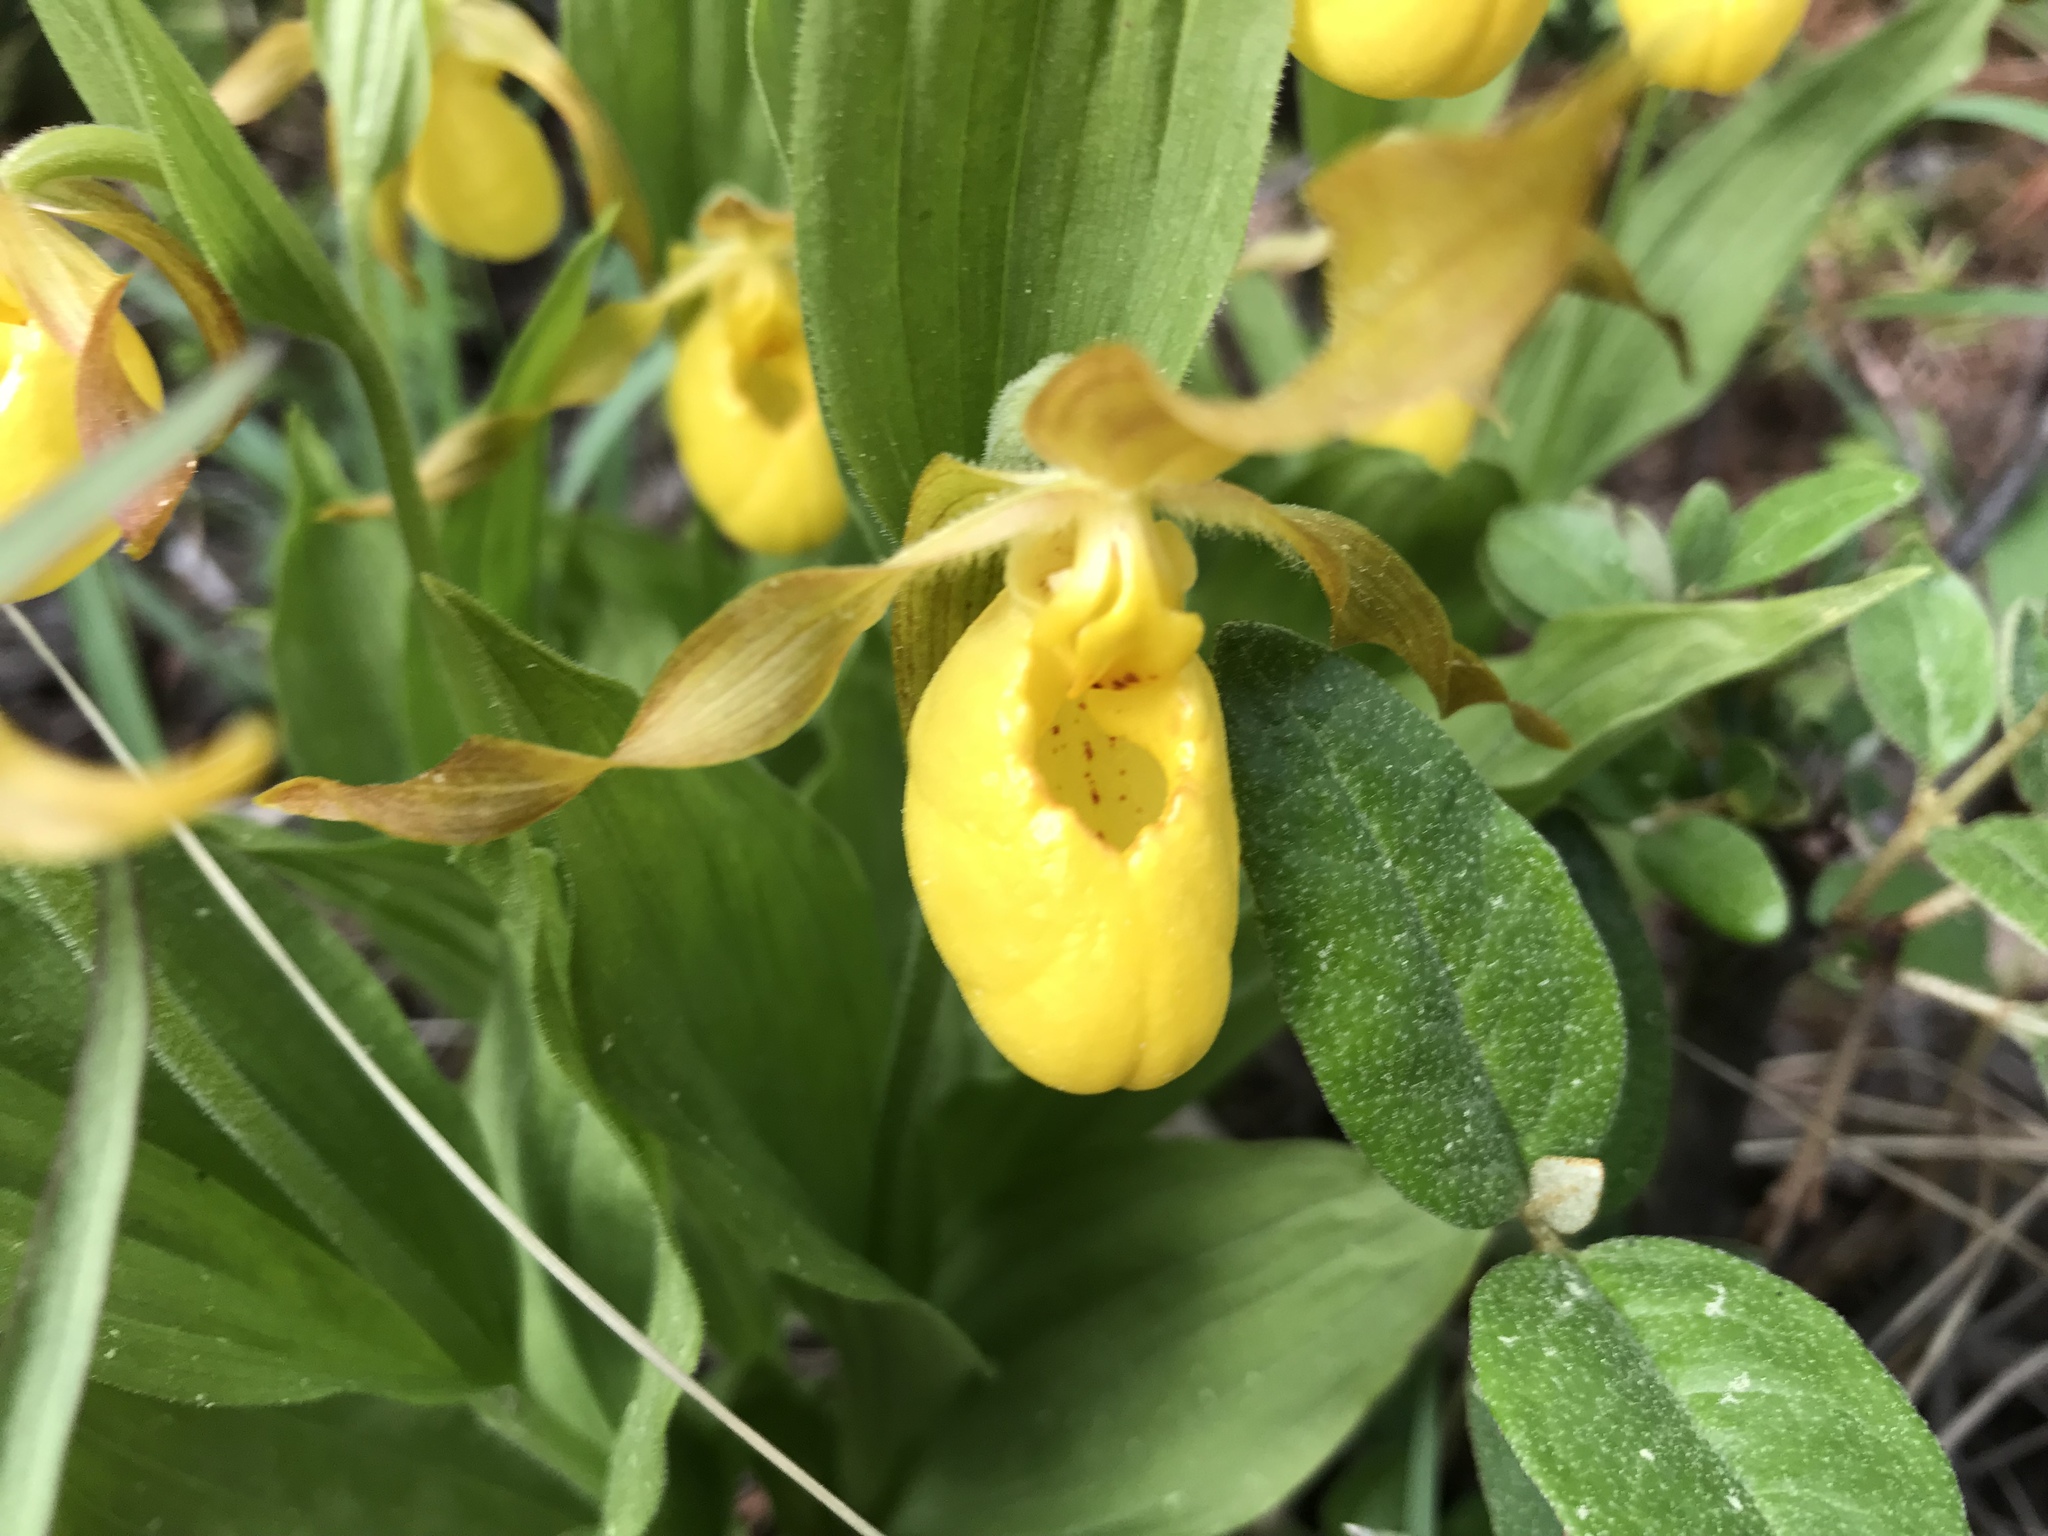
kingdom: Plantae
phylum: Tracheophyta
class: Liliopsida
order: Asparagales
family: Orchidaceae
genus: Cypripedium
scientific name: Cypripedium parviflorum
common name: American yellow lady's-slipper
